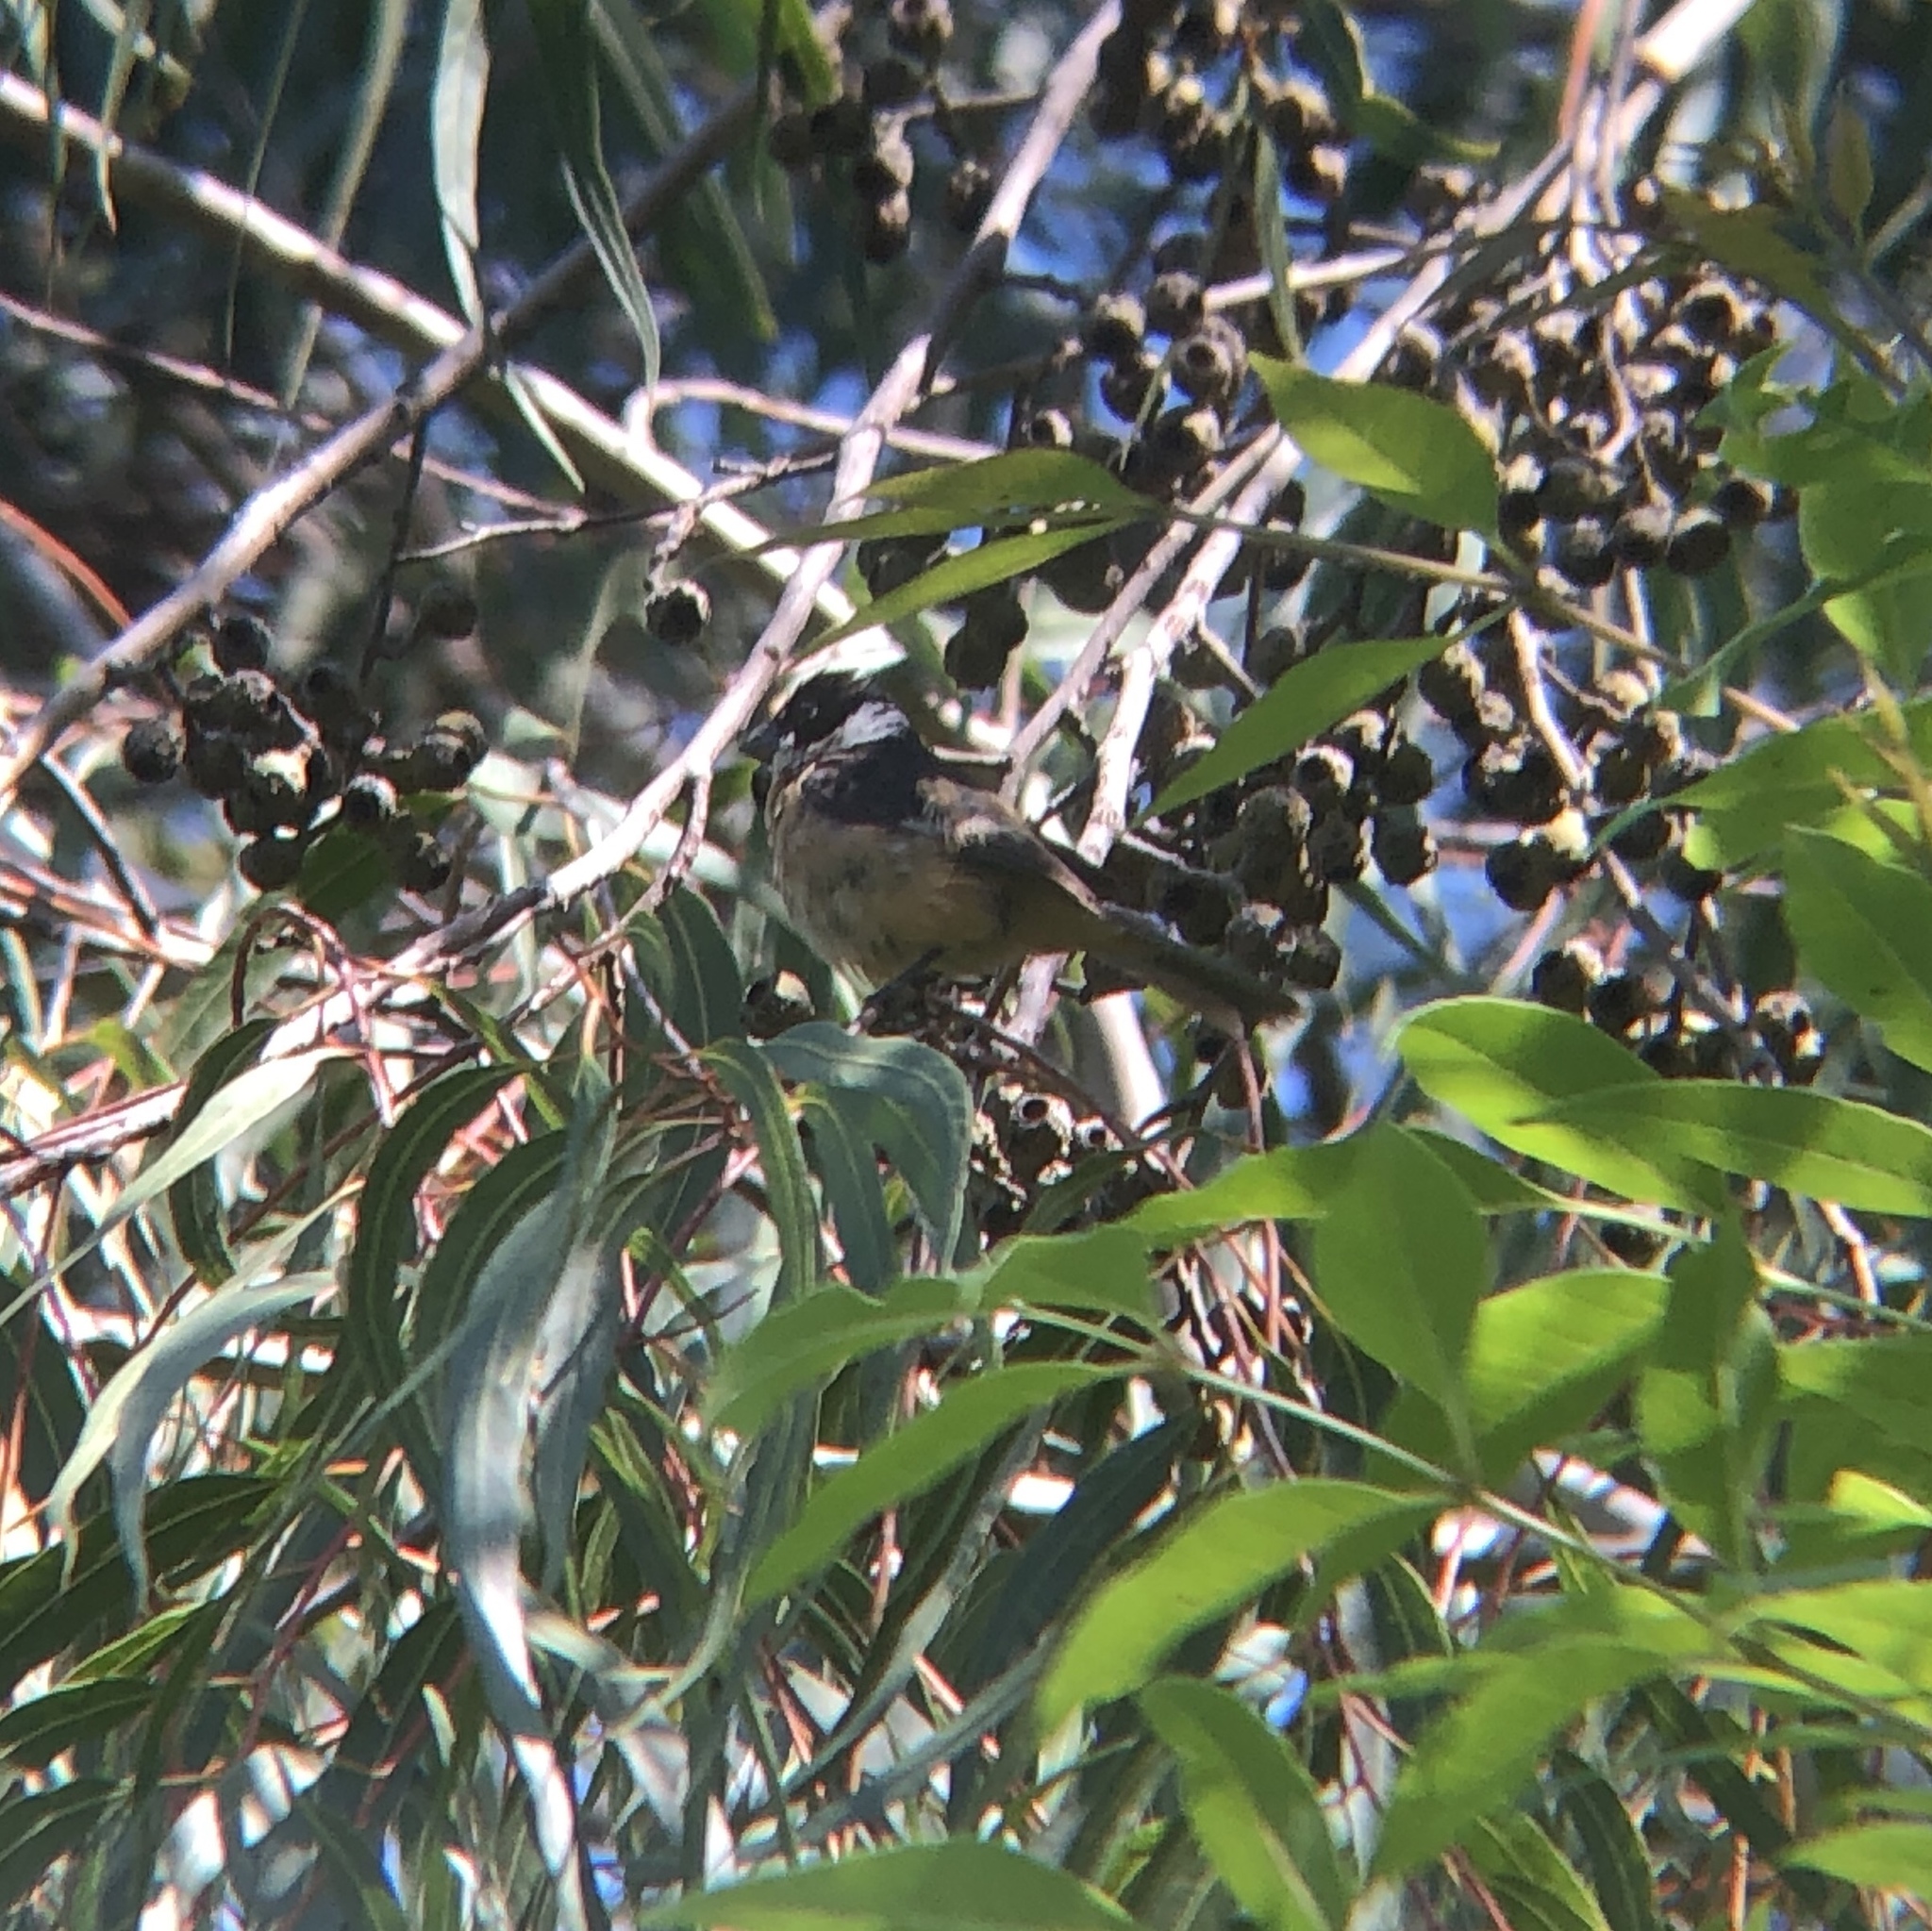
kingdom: Animalia
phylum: Chordata
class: Aves
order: Passeriformes
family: Thraupidae
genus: Sporophila
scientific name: Sporophila torqueola
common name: White-collared seedeater
